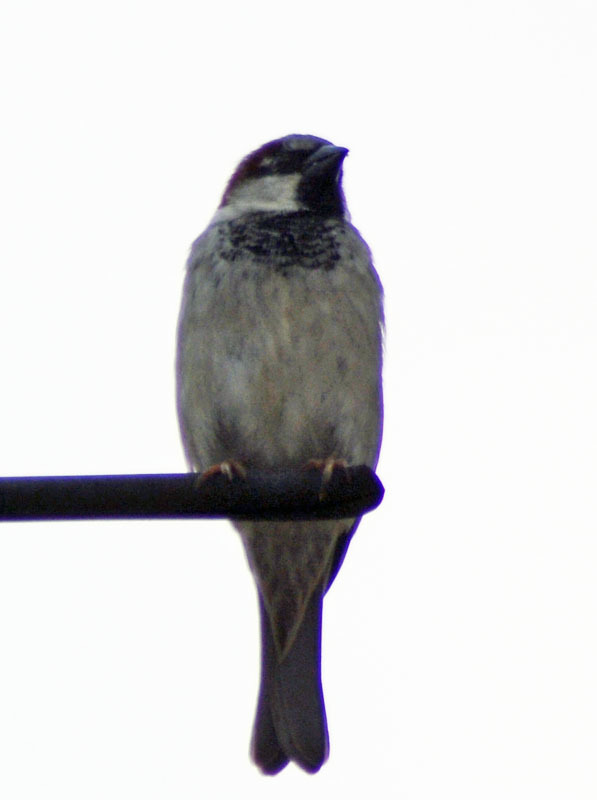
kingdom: Animalia
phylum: Chordata
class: Aves
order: Passeriformes
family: Passeridae
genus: Passer
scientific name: Passer domesticus
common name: House sparrow
